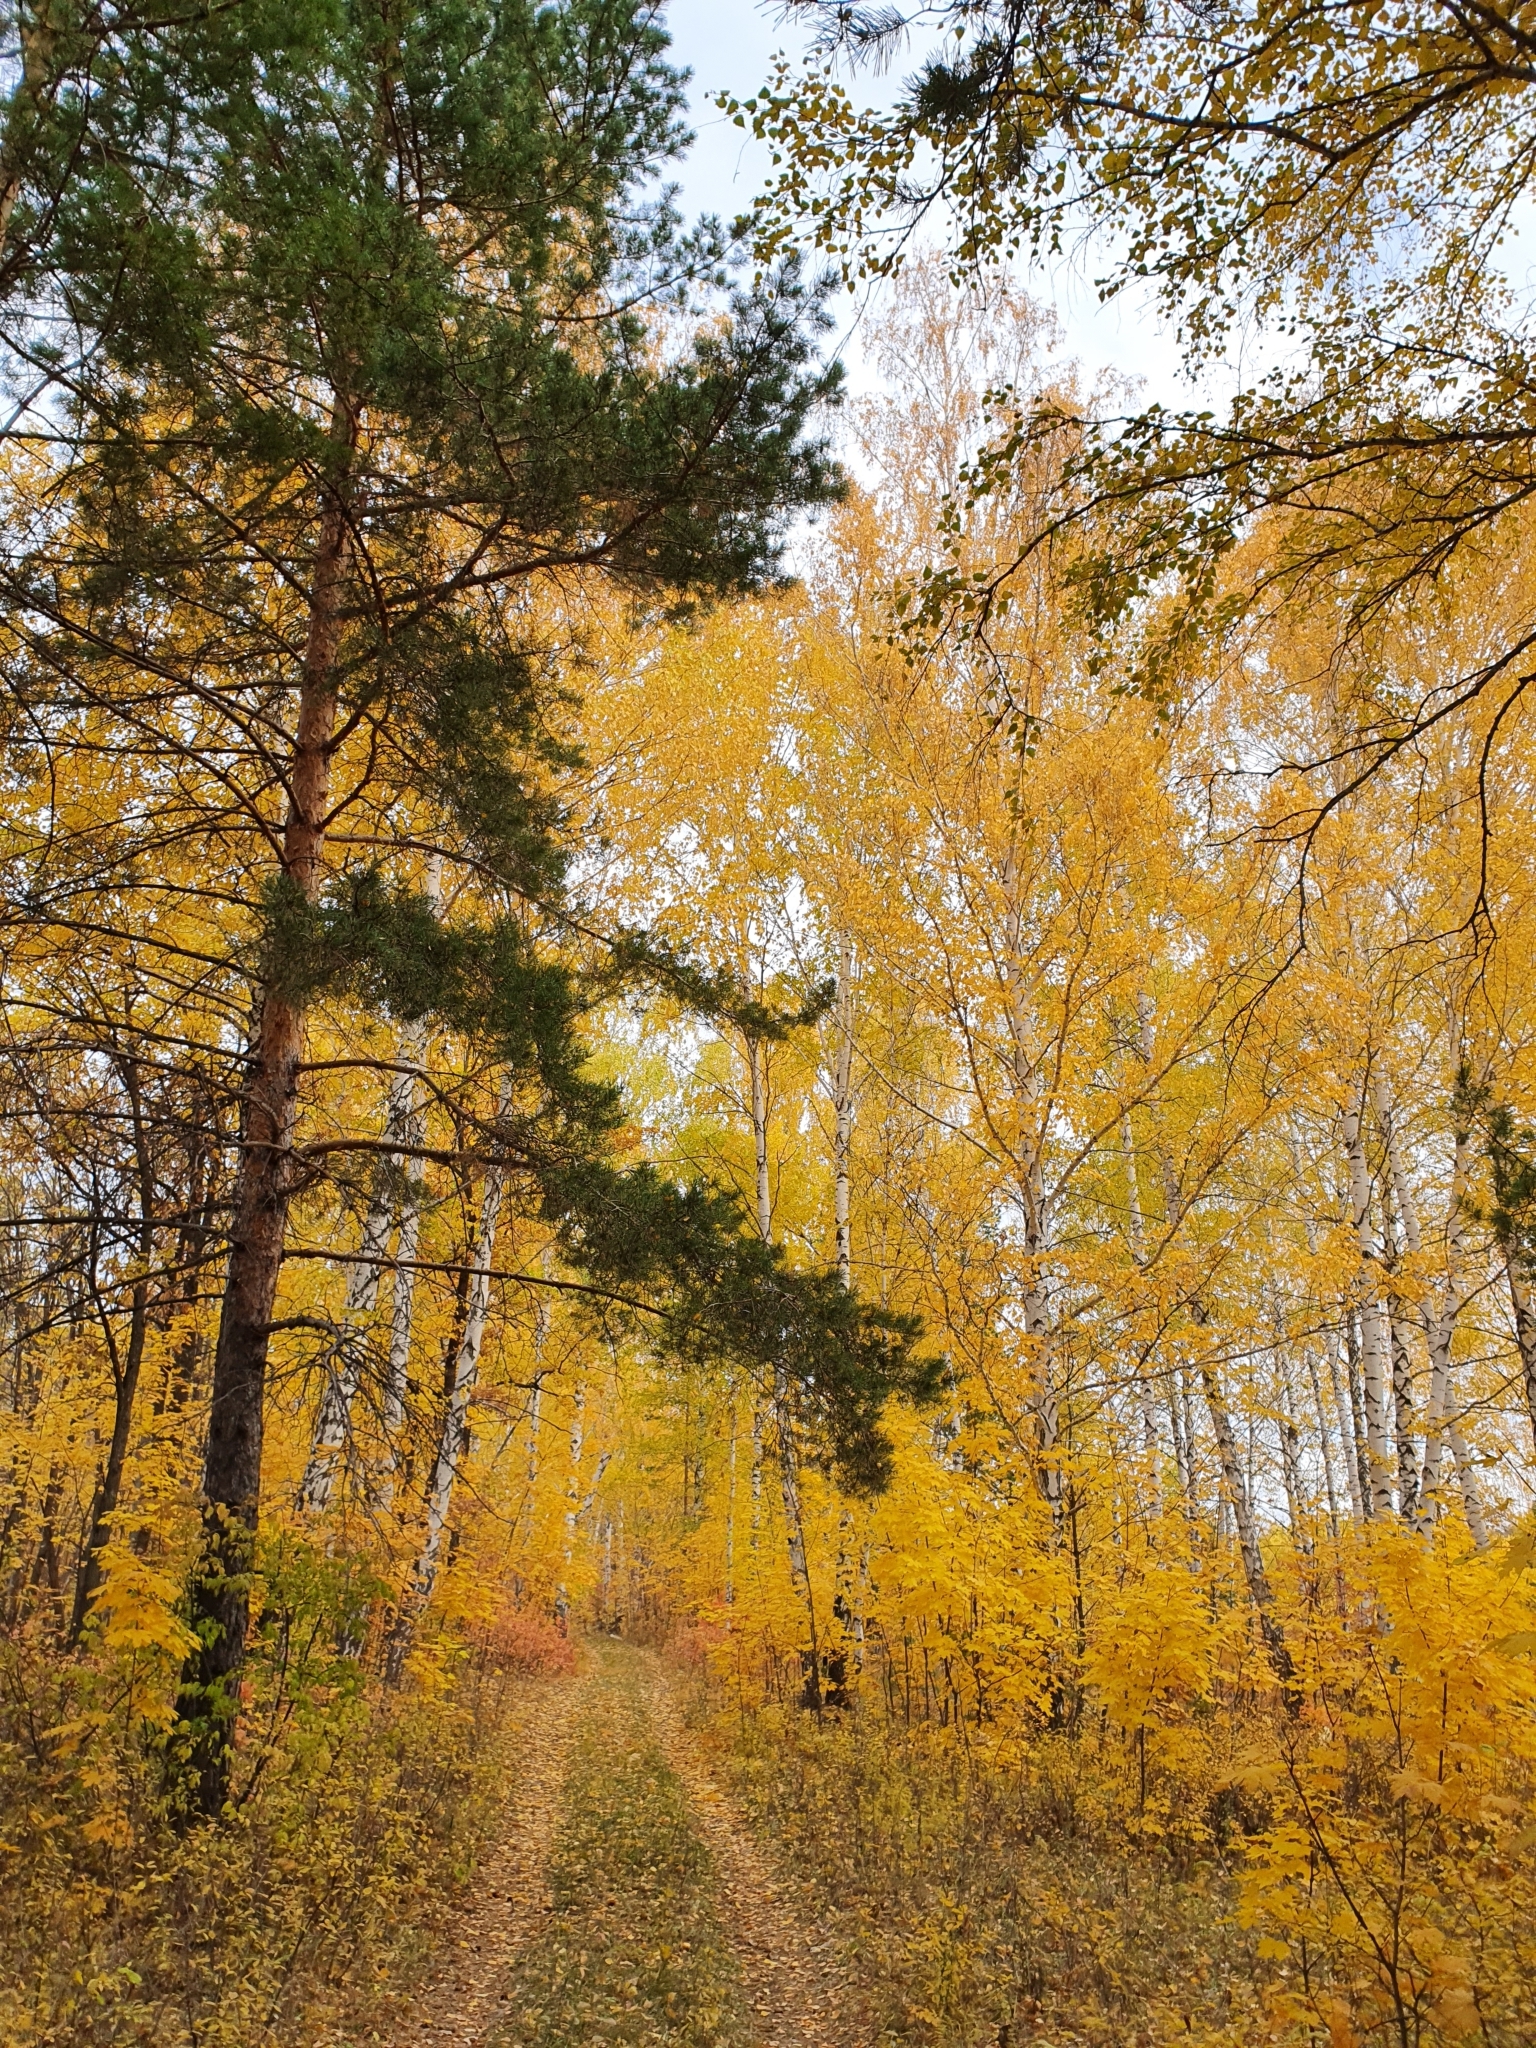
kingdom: Plantae
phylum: Tracheophyta
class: Pinopsida
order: Pinales
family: Pinaceae
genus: Pinus
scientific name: Pinus sylvestris
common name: Scots pine
